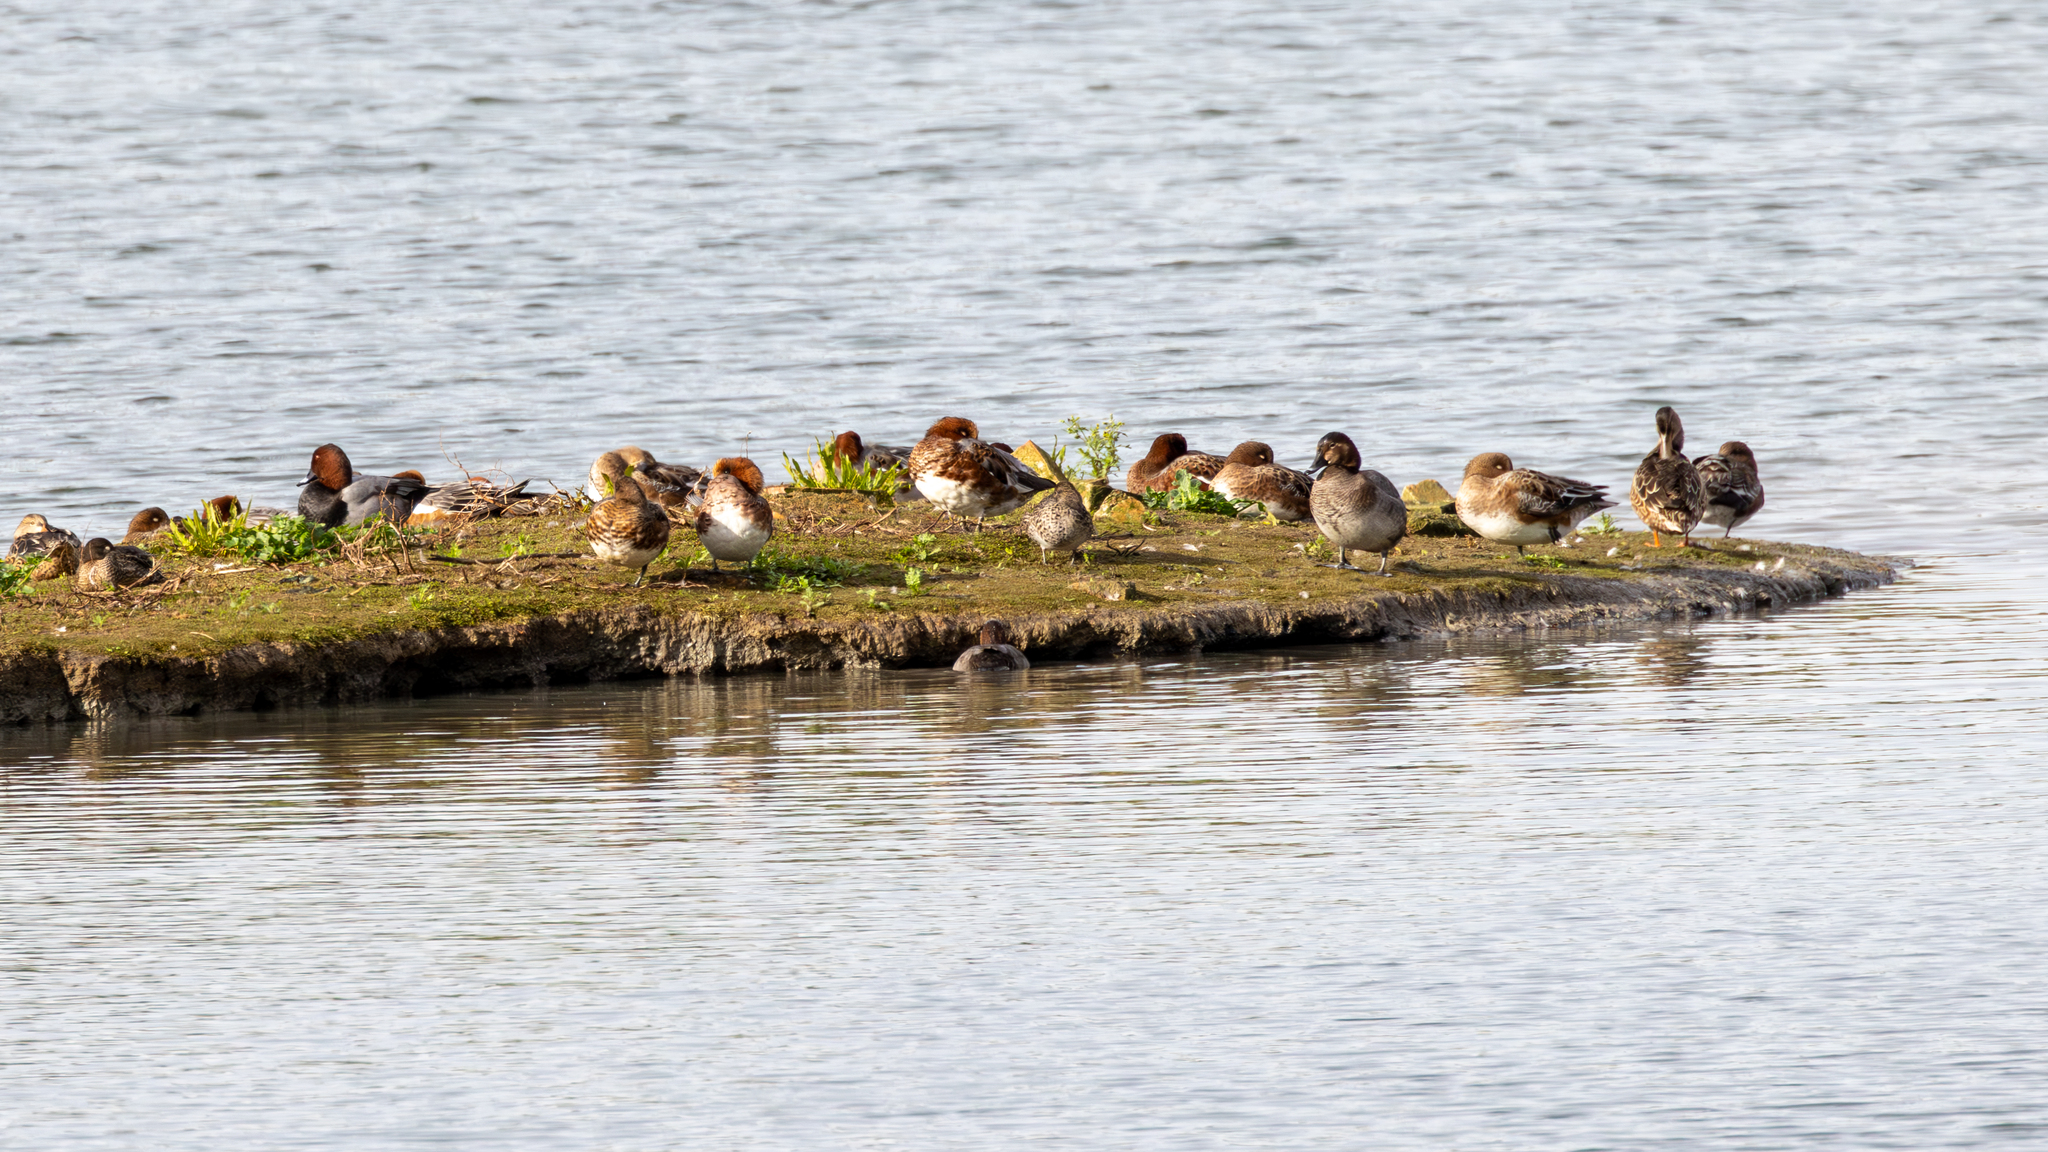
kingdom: Animalia
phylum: Chordata
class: Aves
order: Anseriformes
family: Anatidae
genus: Aythya
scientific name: Aythya ferina
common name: Common pochard
